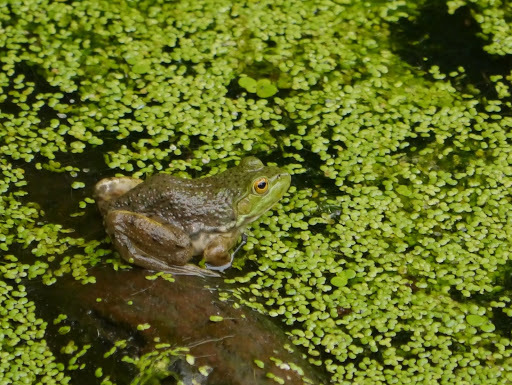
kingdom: Animalia
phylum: Chordata
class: Amphibia
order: Anura
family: Ranidae
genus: Lithobates
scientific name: Lithobates catesbeianus
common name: American bullfrog
